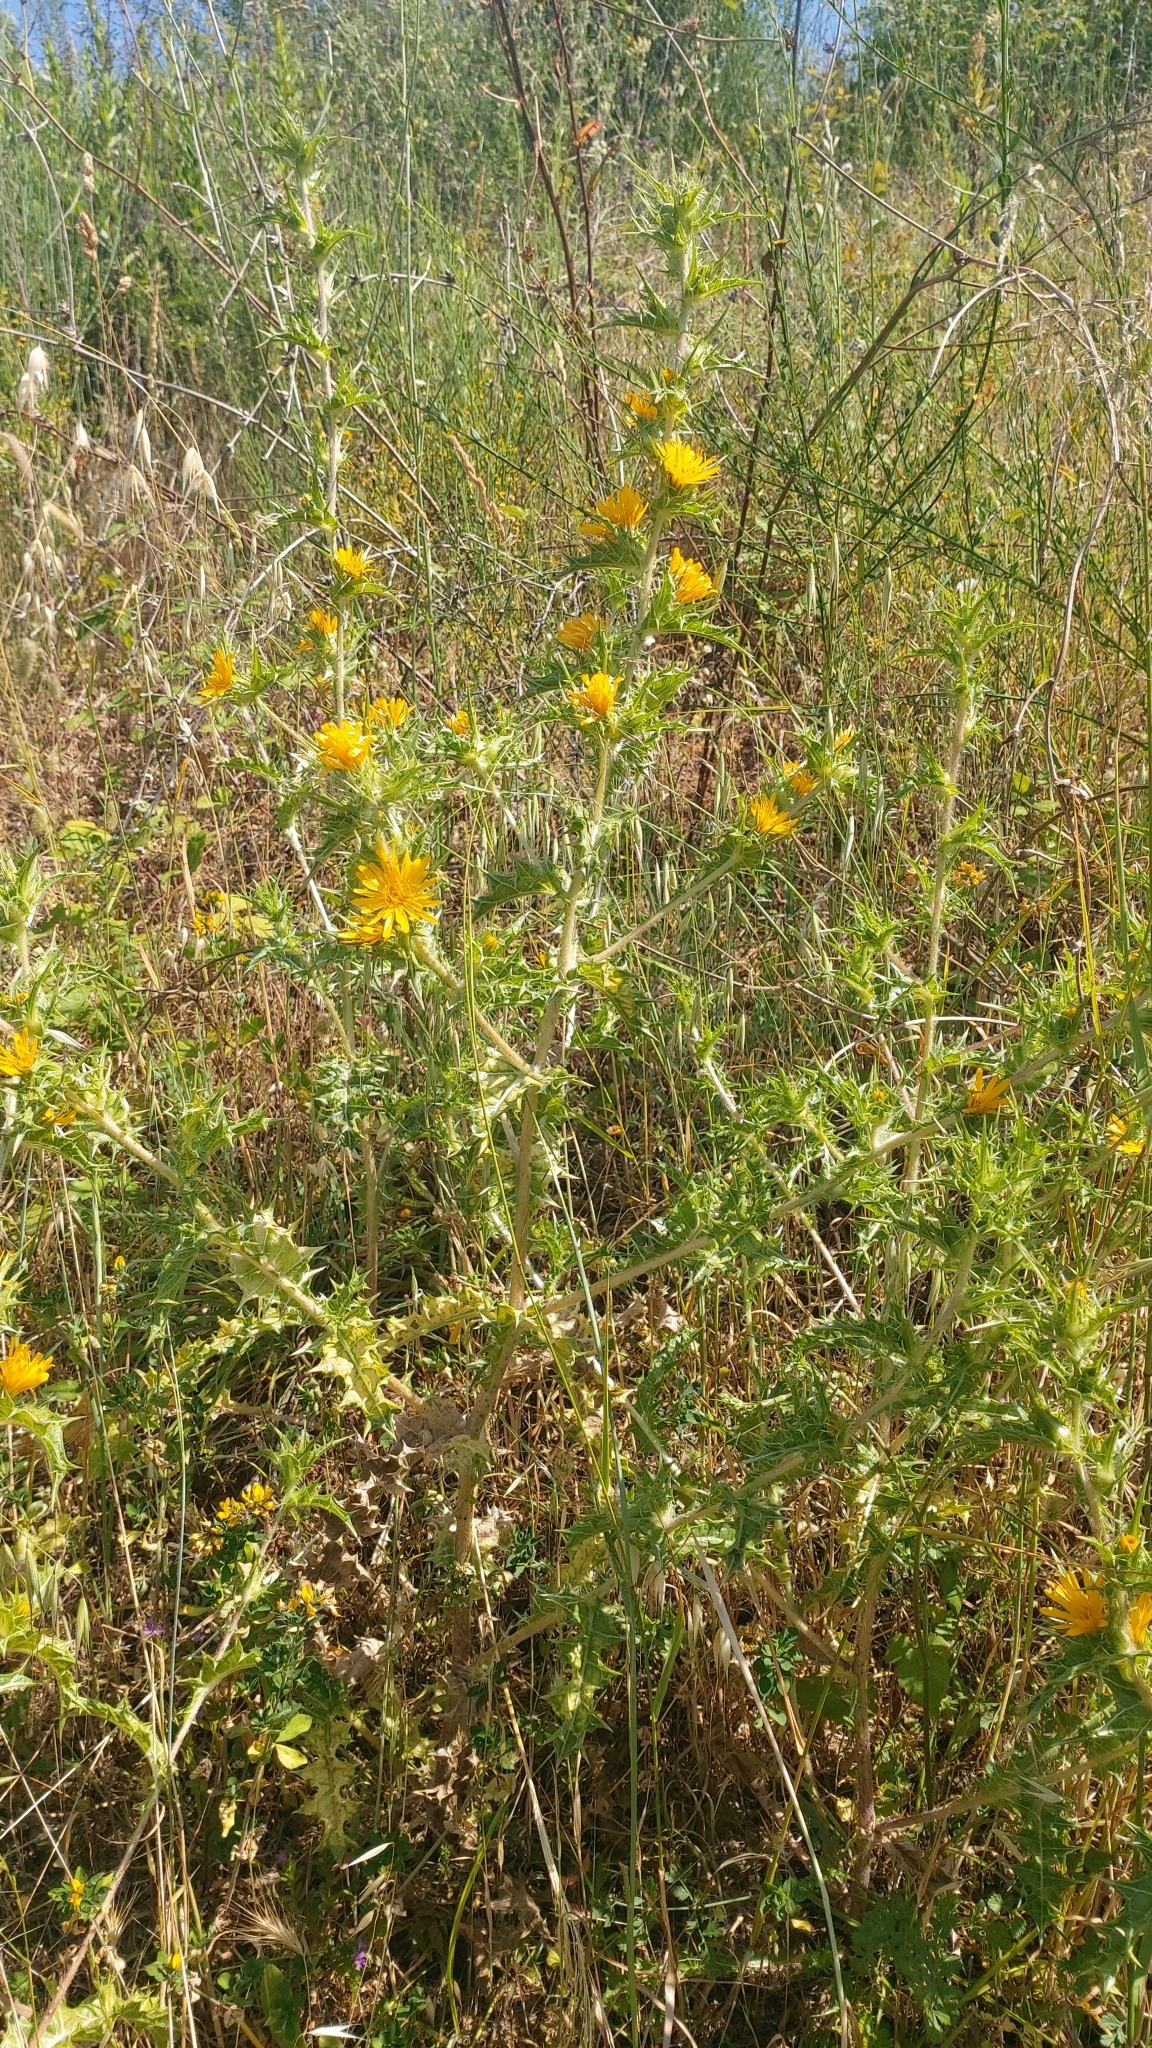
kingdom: Plantae
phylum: Tracheophyta
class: Magnoliopsida
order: Asterales
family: Asteraceae
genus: Scolymus
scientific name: Scolymus hispanicus
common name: Golden thistle
